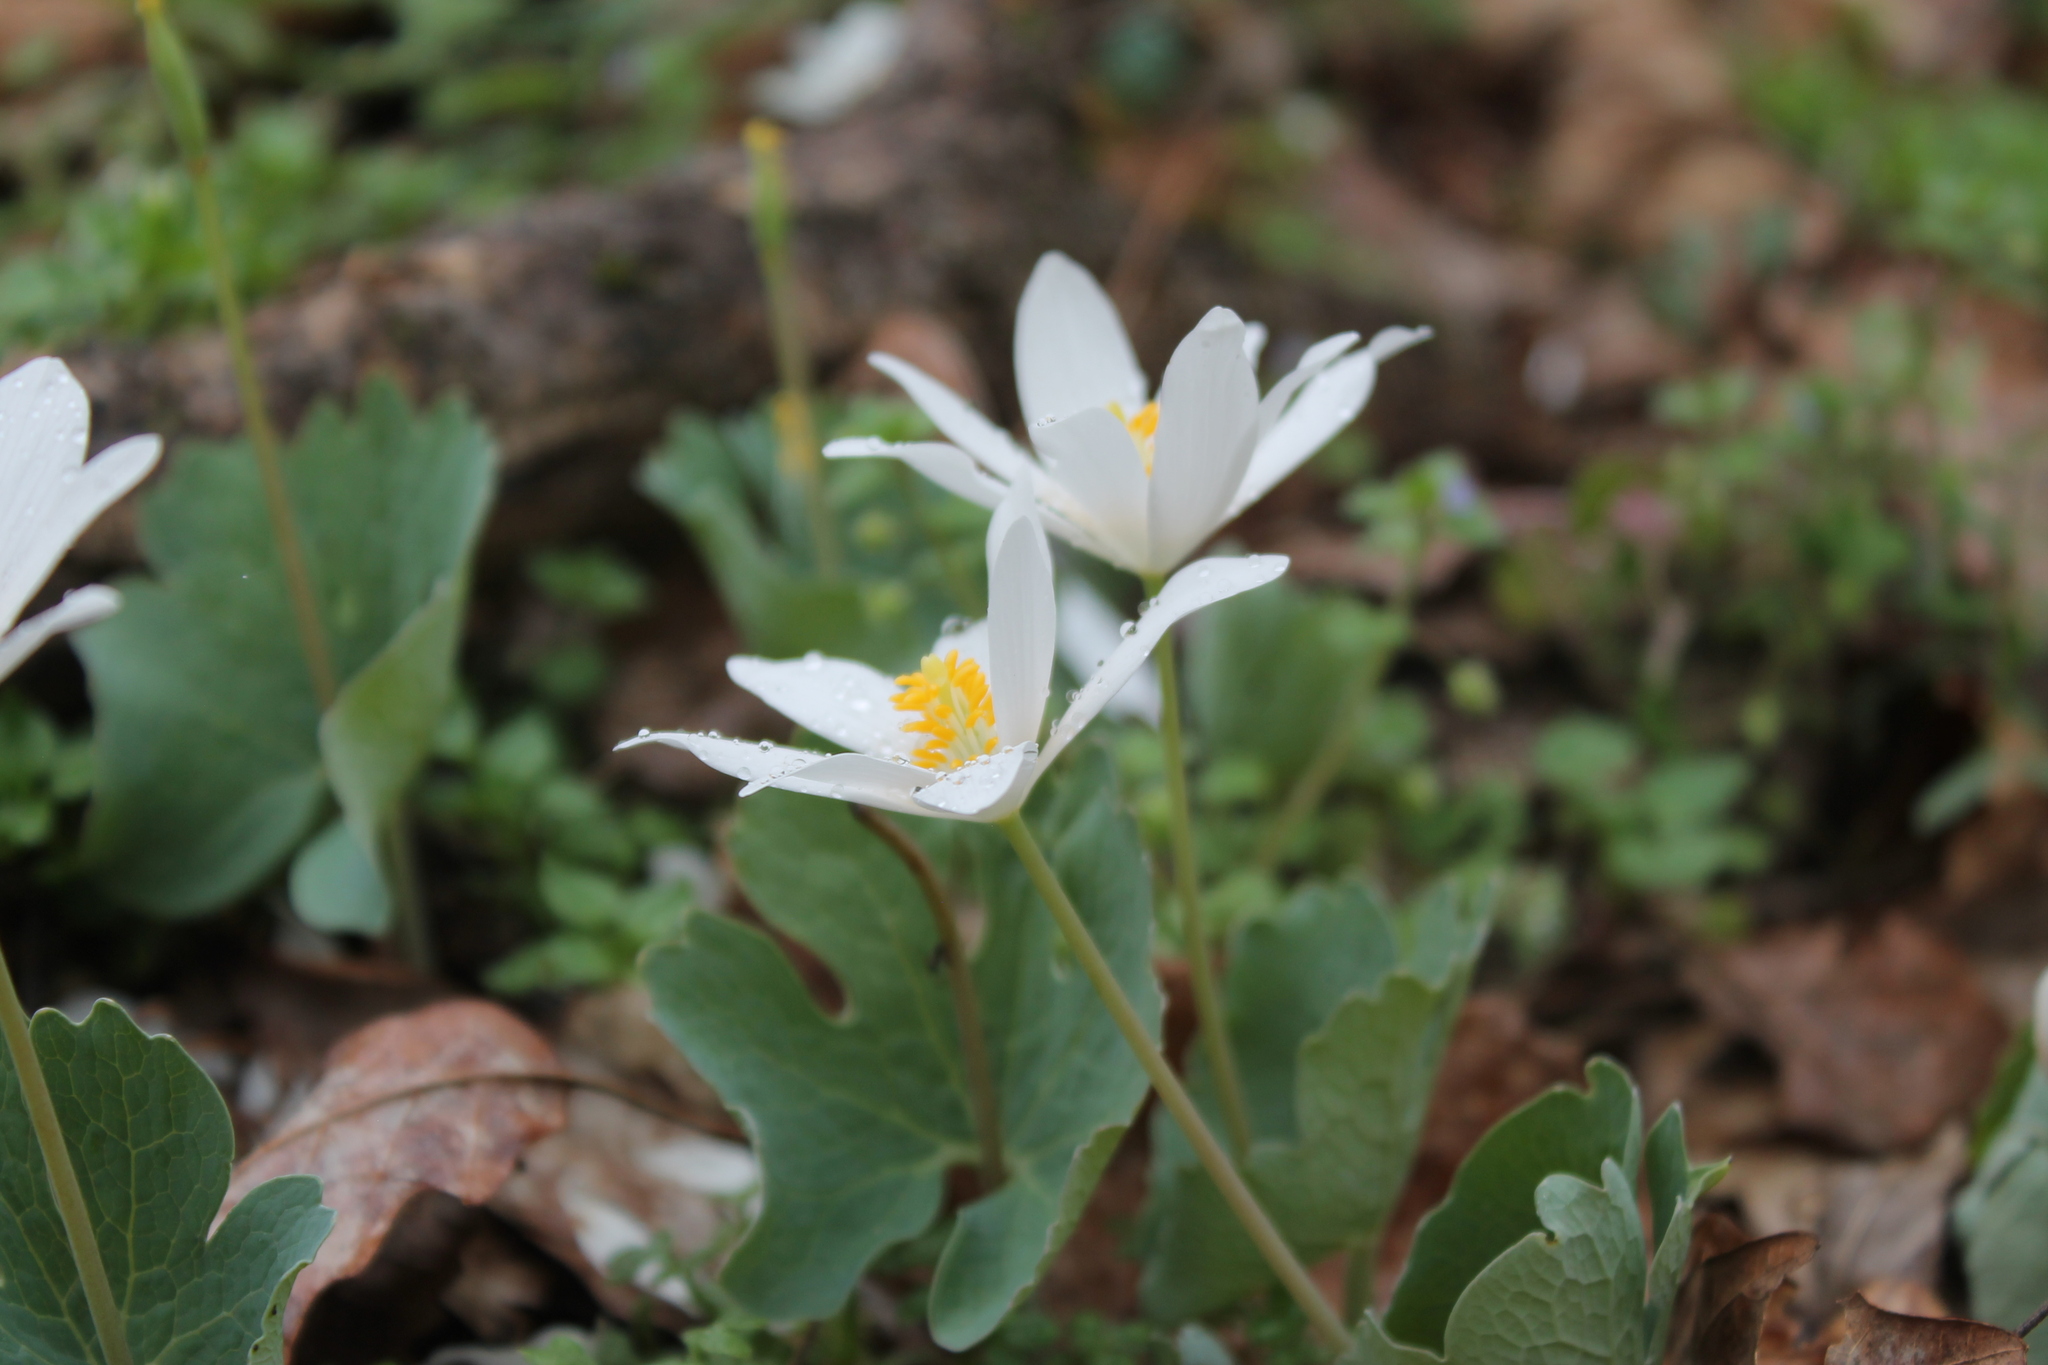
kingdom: Plantae
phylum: Tracheophyta
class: Magnoliopsida
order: Ranunculales
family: Papaveraceae
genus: Sanguinaria
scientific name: Sanguinaria canadensis
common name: Bloodroot
